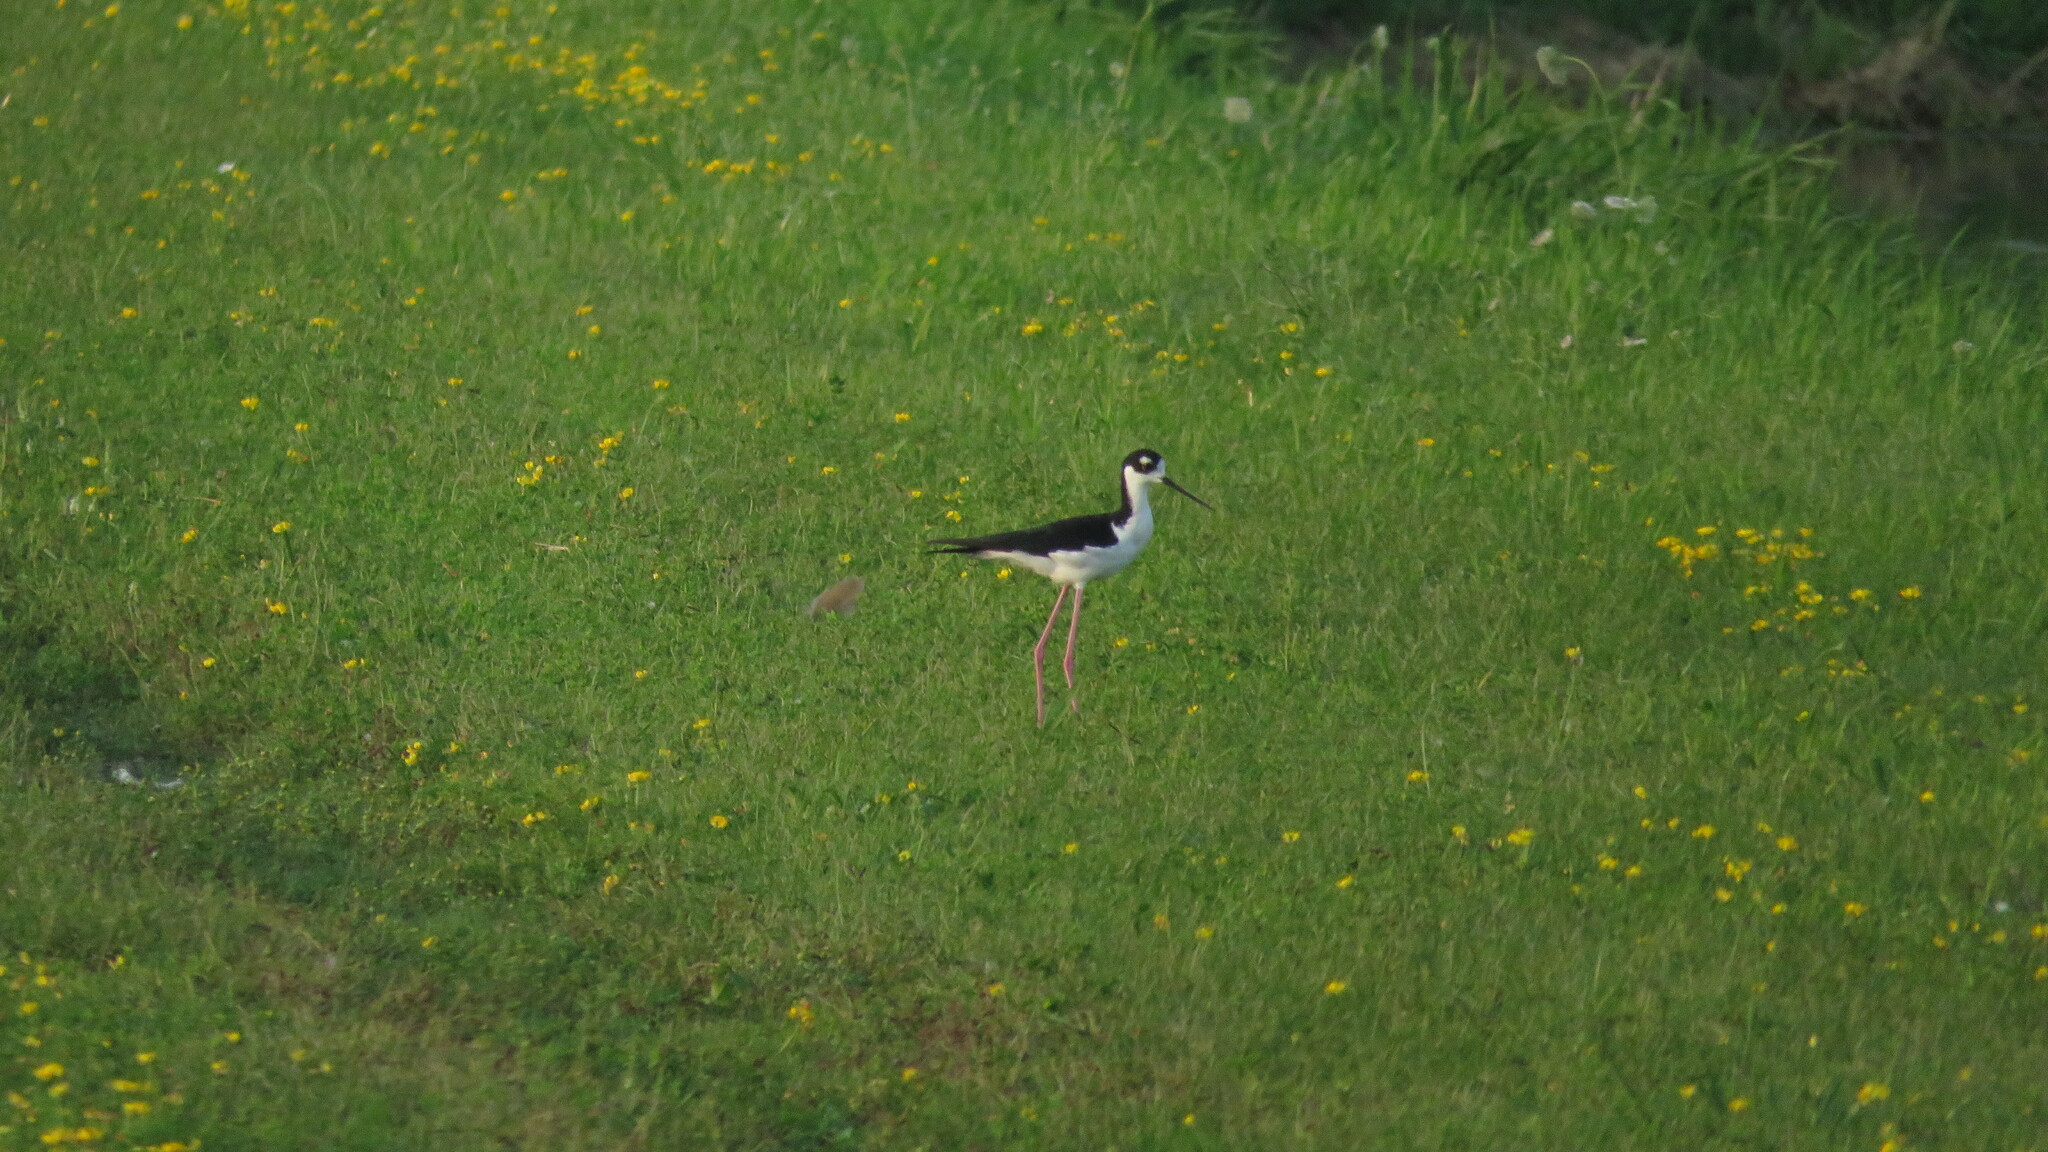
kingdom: Animalia
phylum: Chordata
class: Aves
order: Charadriiformes
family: Recurvirostridae
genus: Himantopus
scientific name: Himantopus mexicanus
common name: Black-necked stilt
